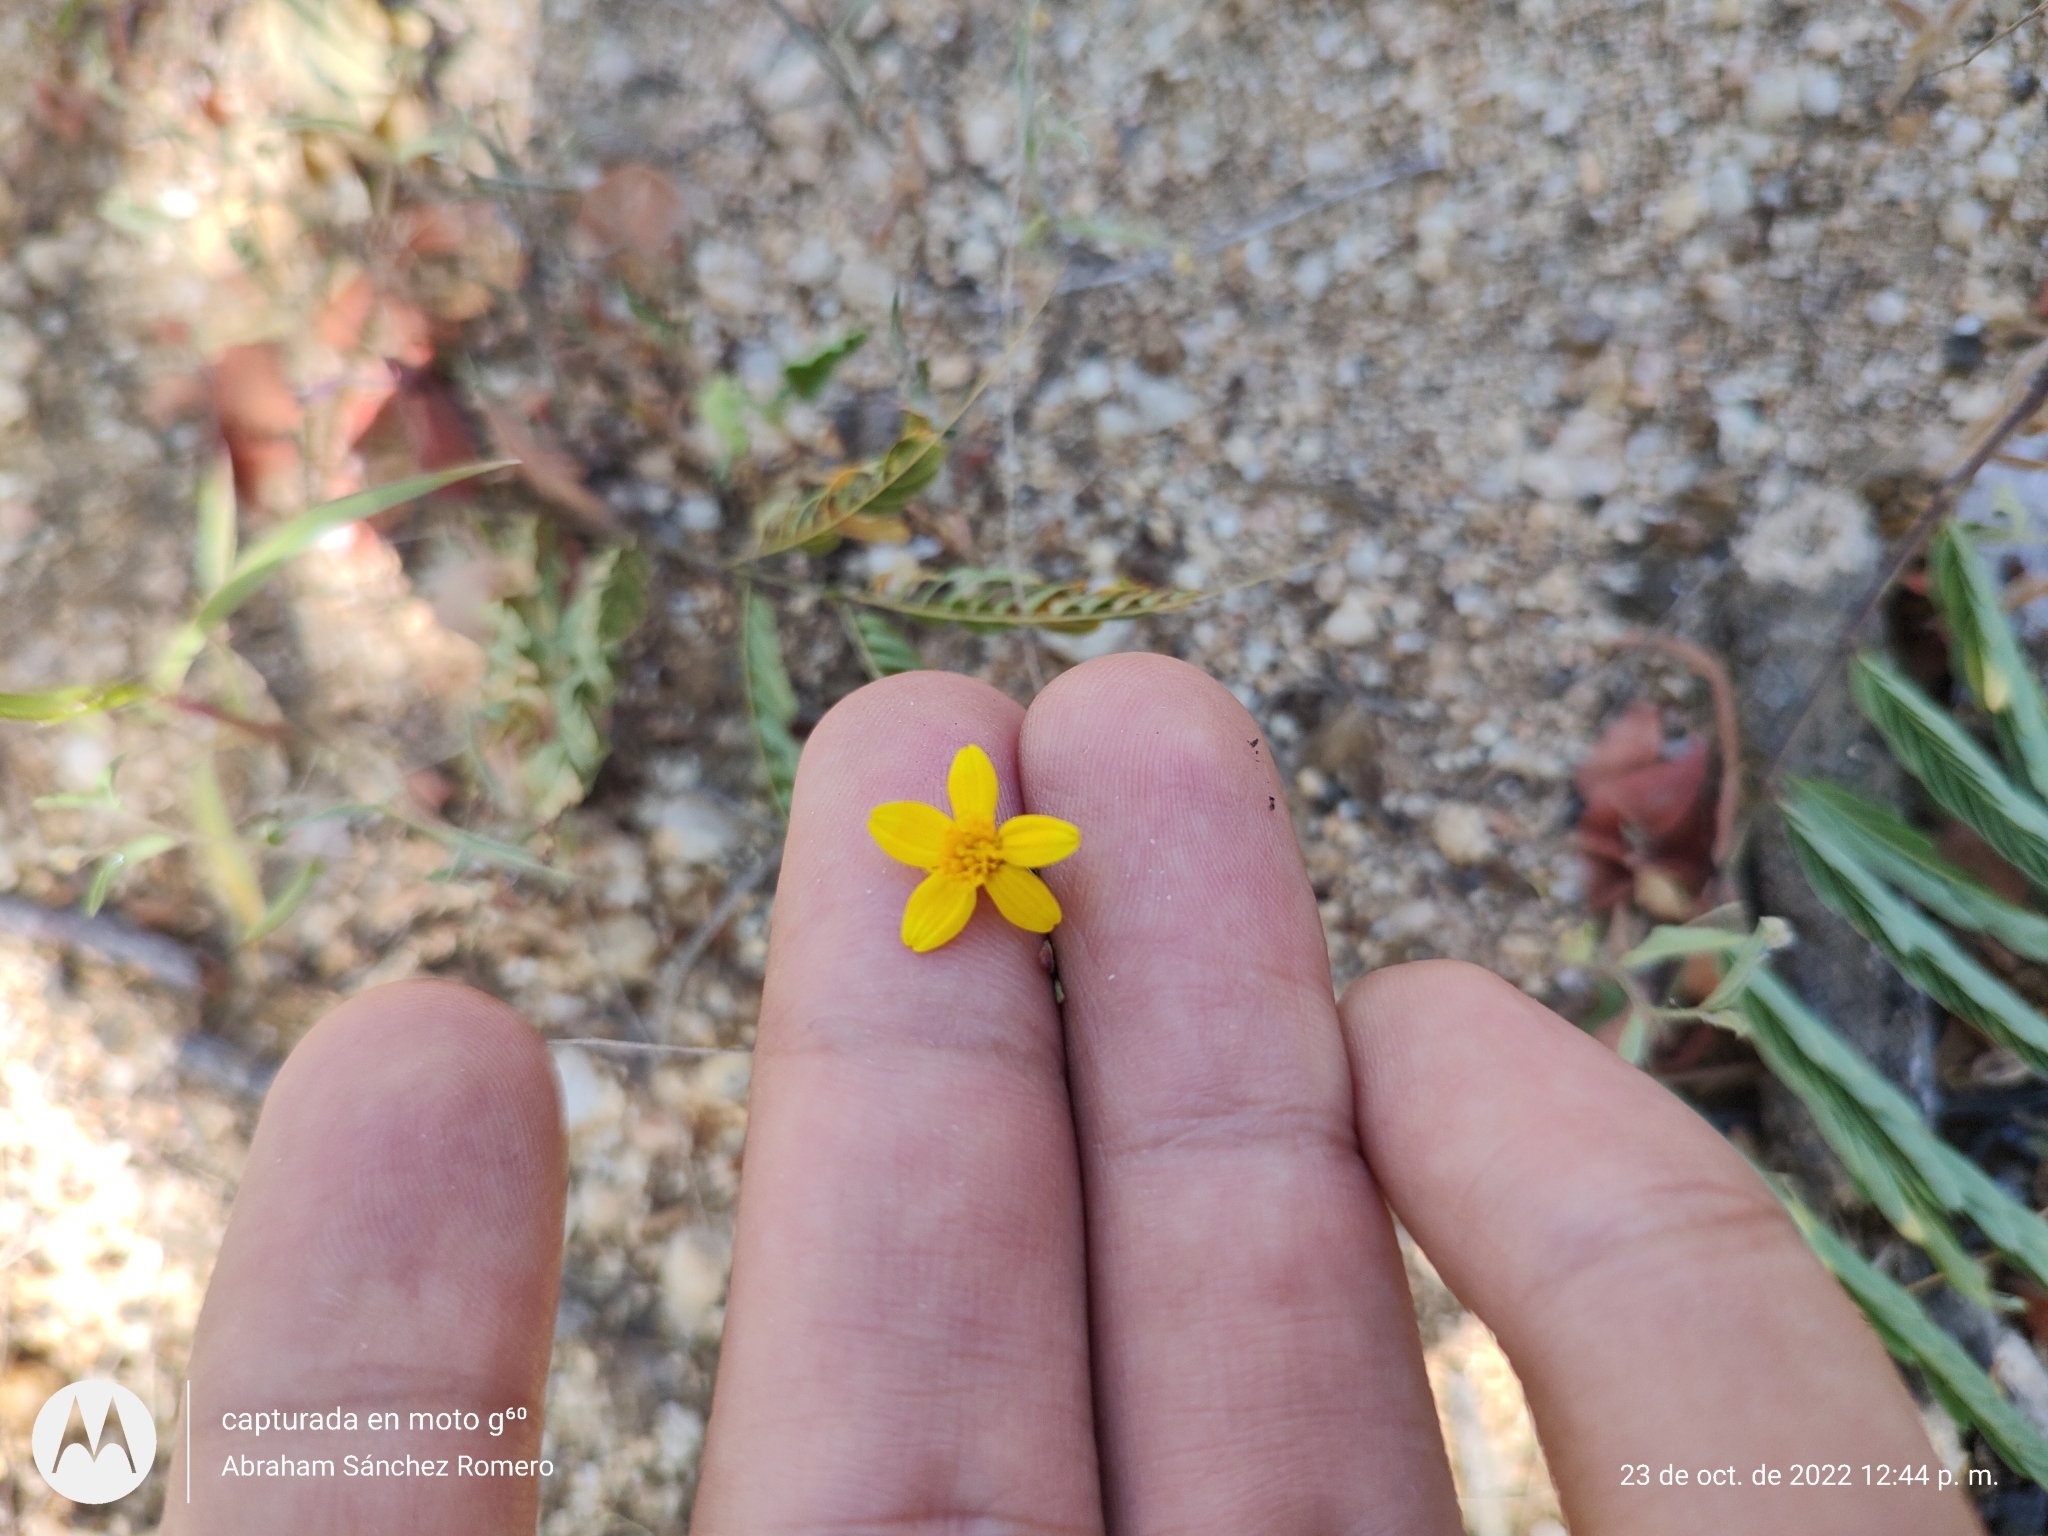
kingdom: Plantae
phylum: Tracheophyta
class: Magnoliopsida
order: Asterales
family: Asteraceae
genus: Pectis
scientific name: Pectis multiseta
